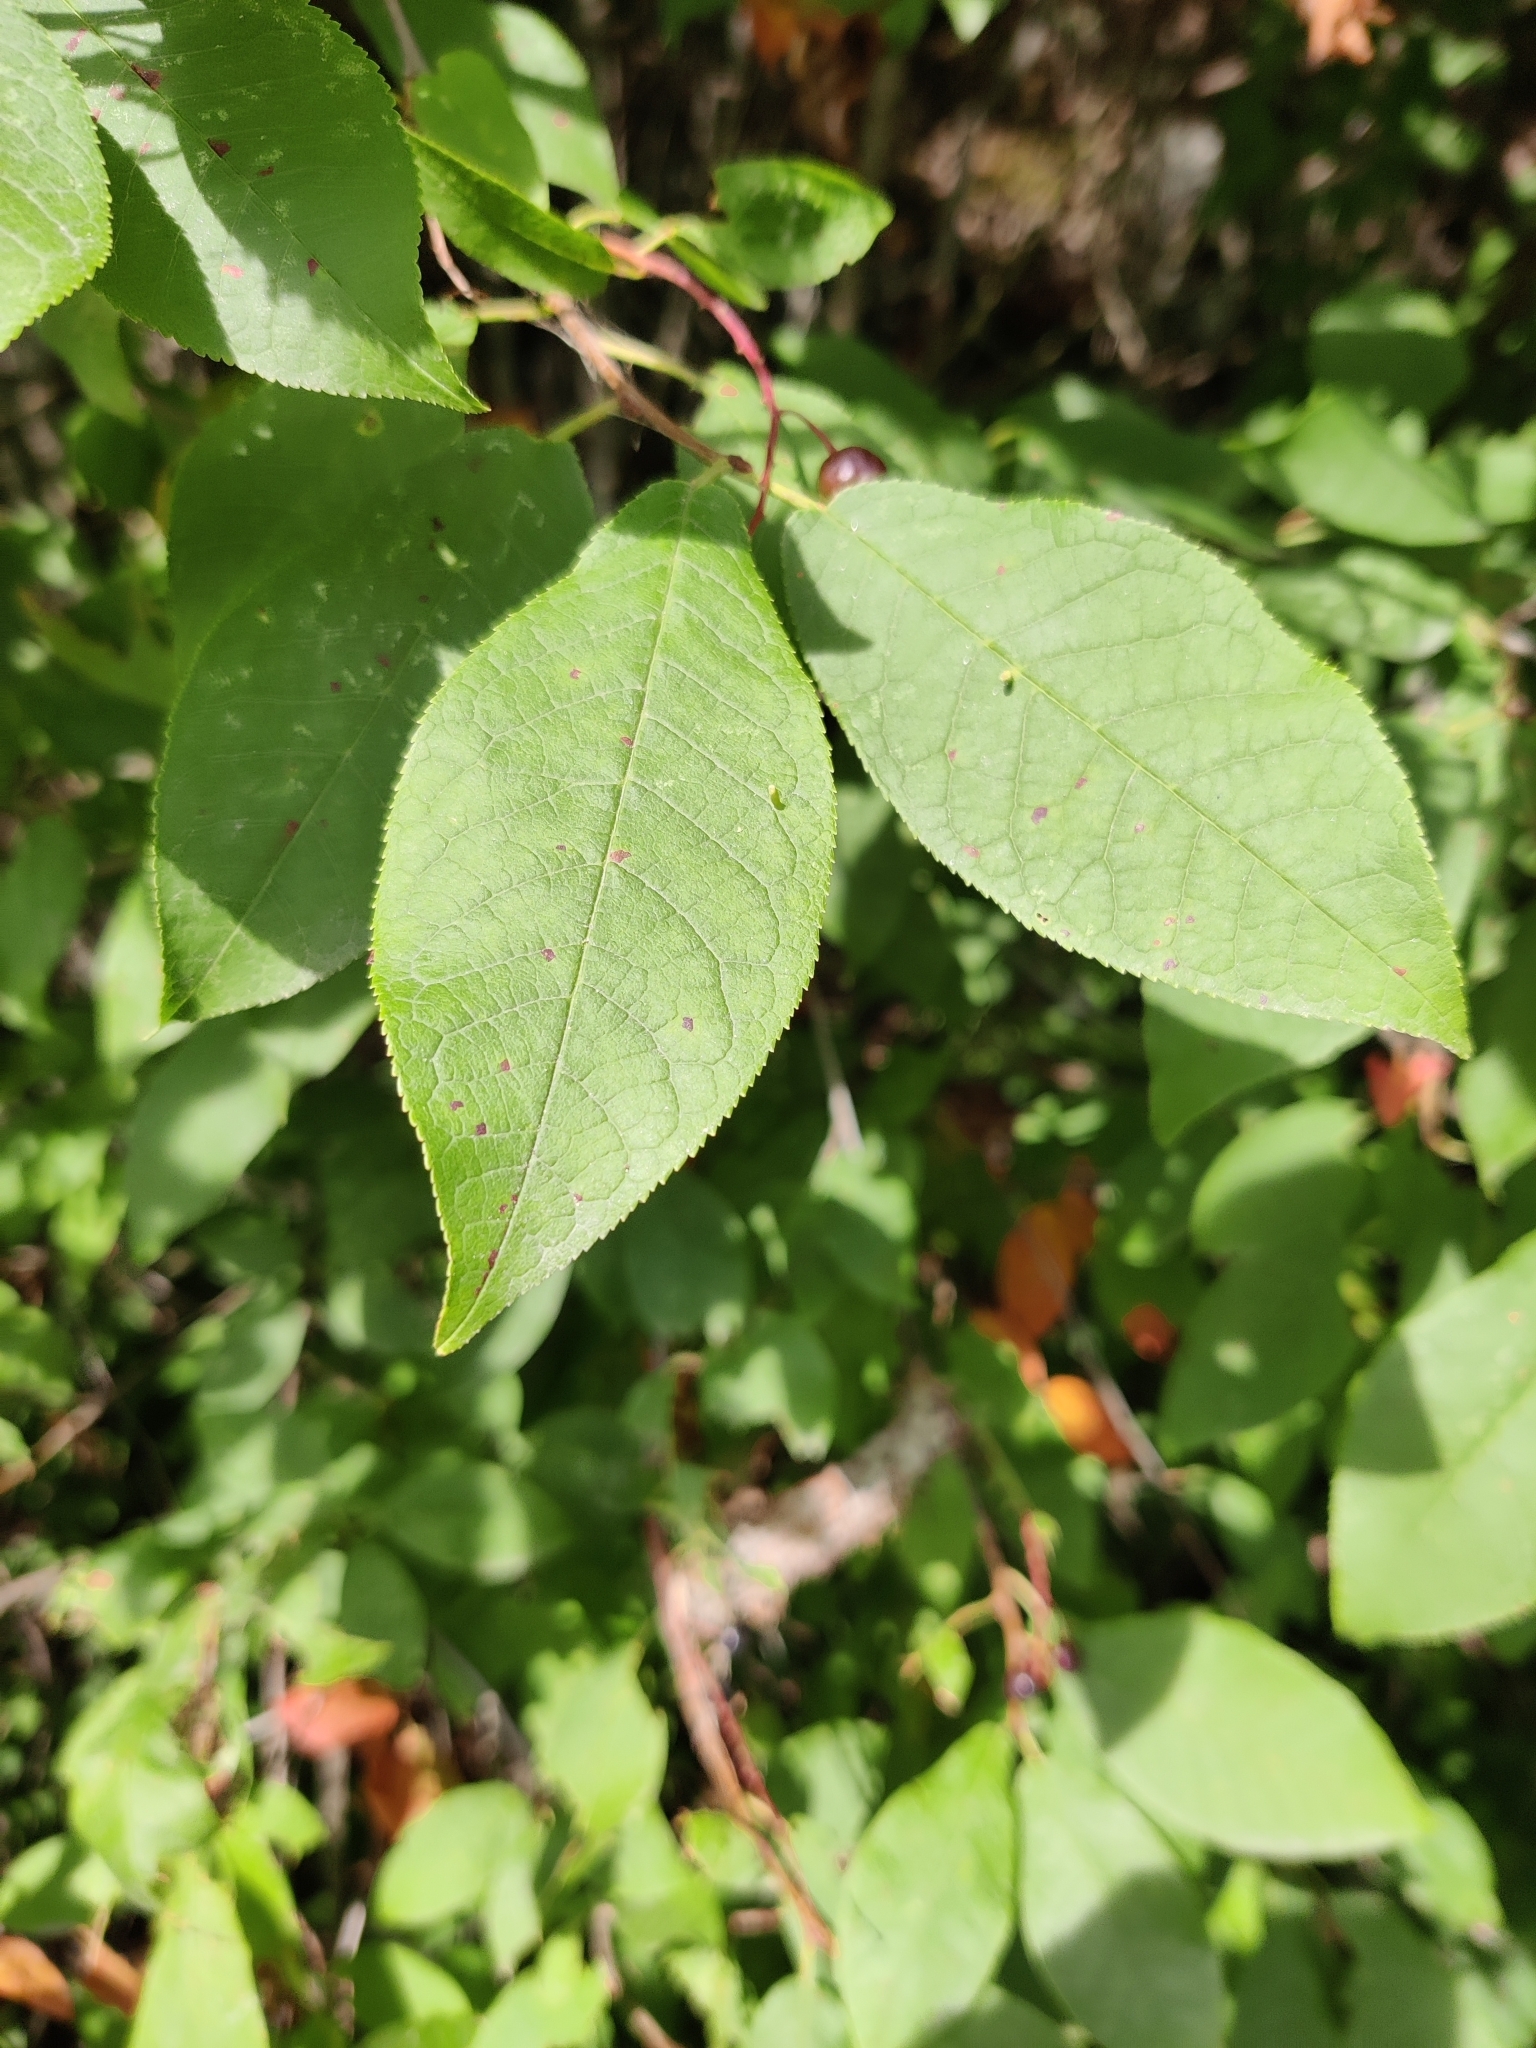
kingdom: Plantae
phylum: Tracheophyta
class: Magnoliopsida
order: Rosales
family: Rosaceae
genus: Prunus
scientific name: Prunus padus
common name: Bird cherry
